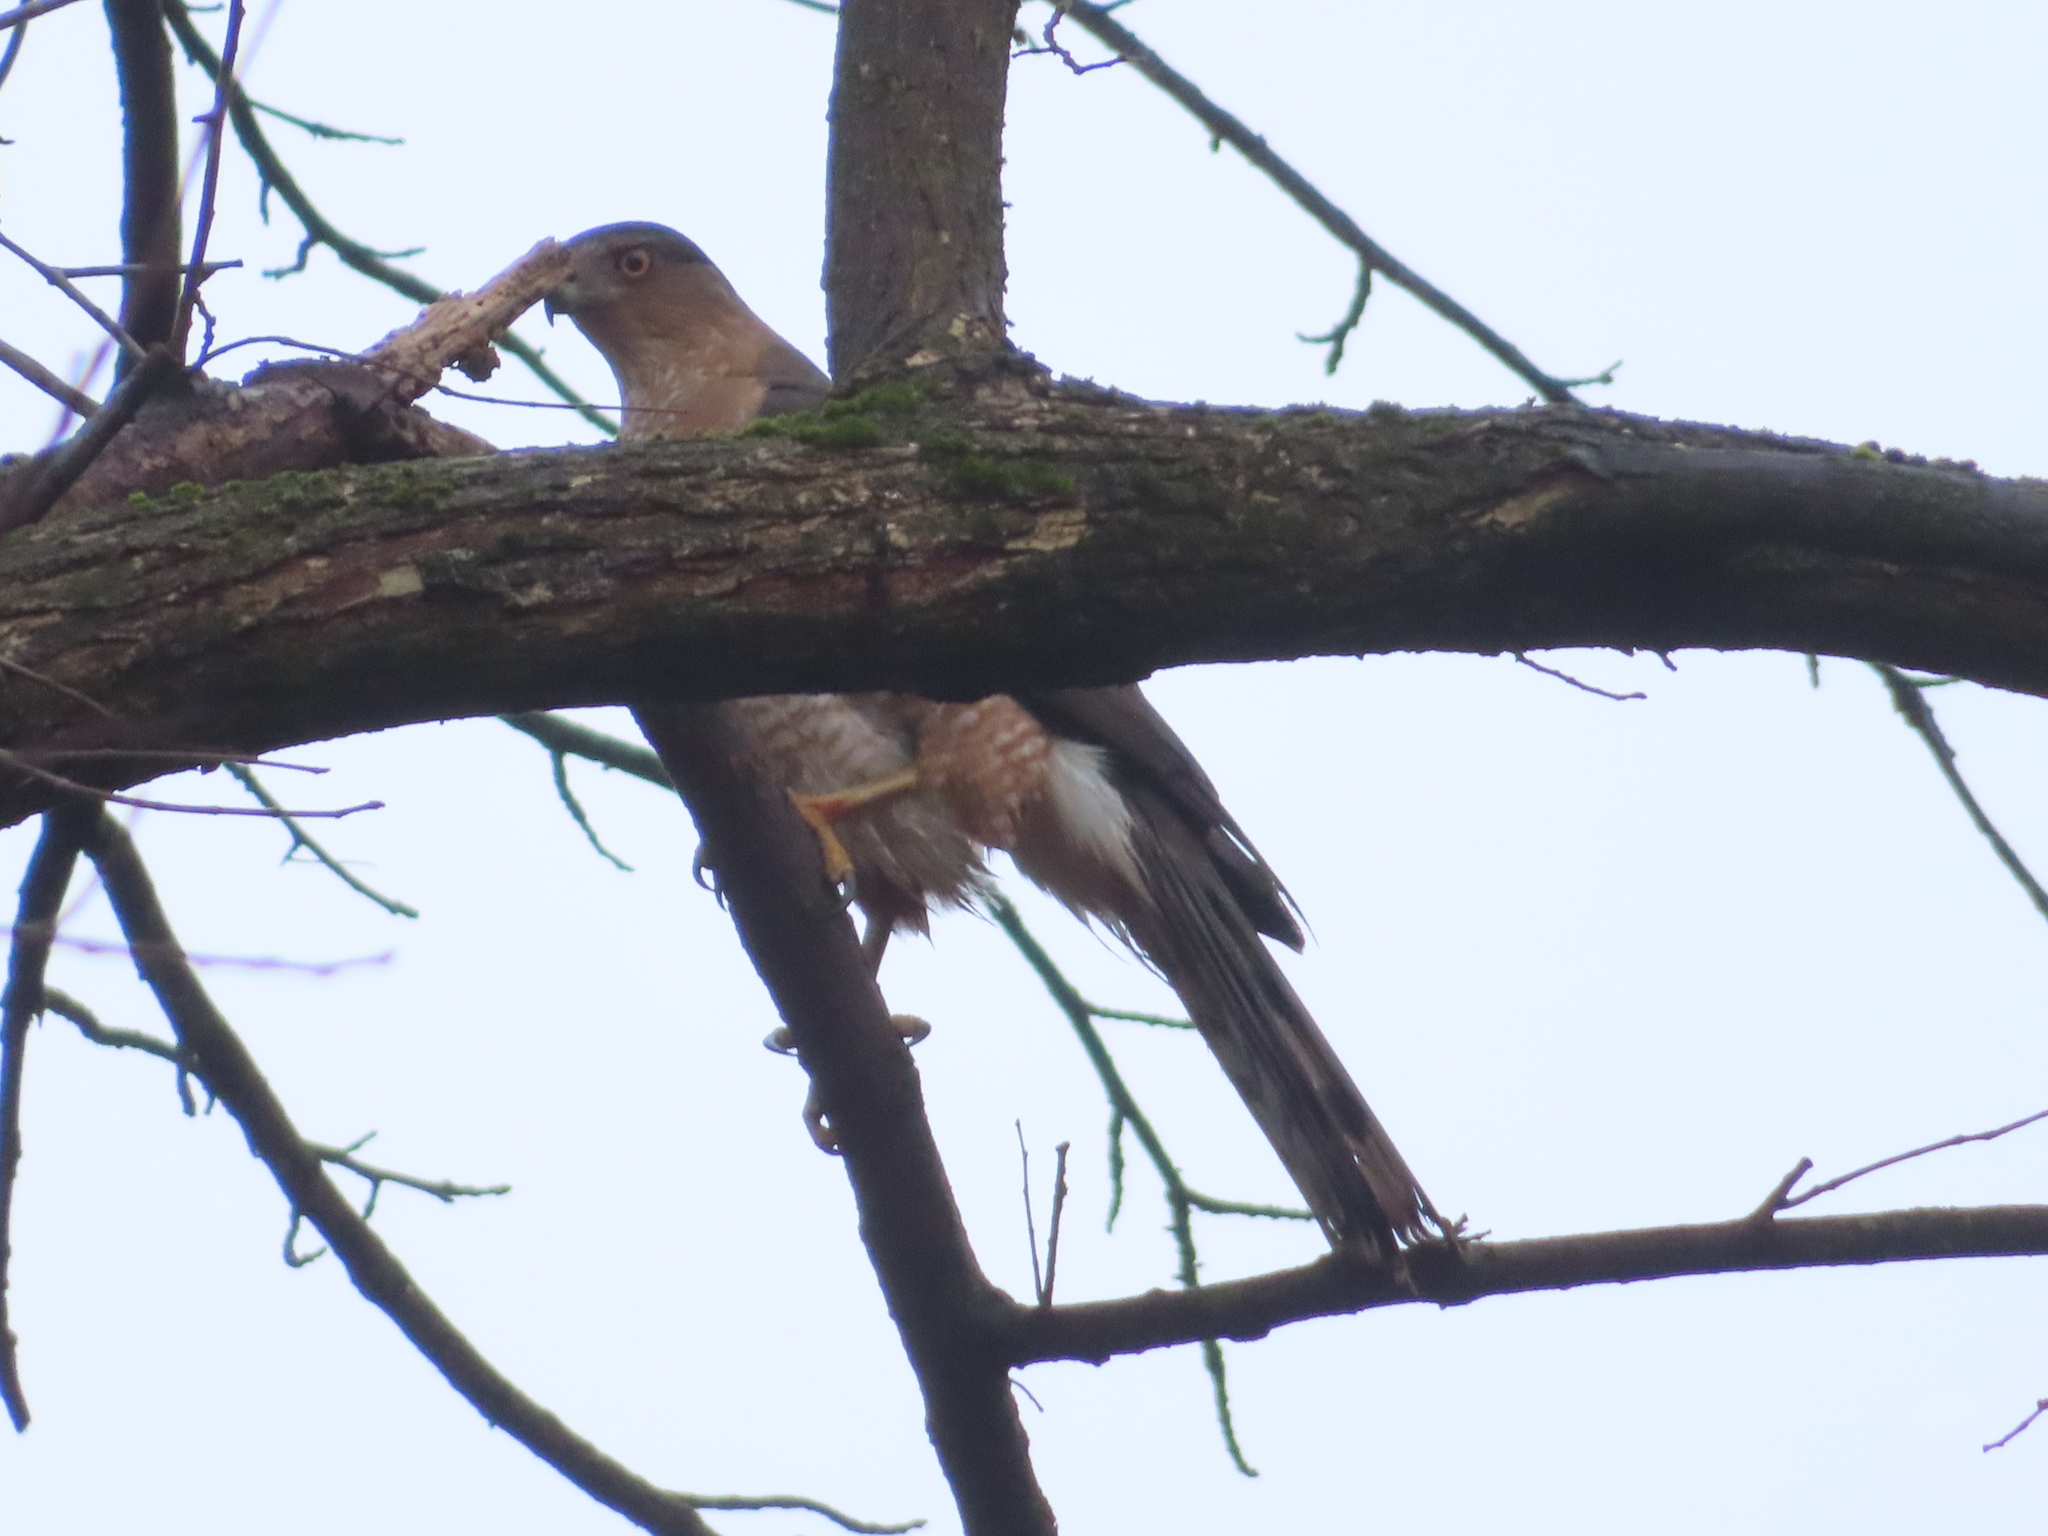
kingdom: Animalia
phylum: Chordata
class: Aves
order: Accipitriformes
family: Accipitridae
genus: Accipiter
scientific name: Accipiter cooperii
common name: Cooper's hawk
